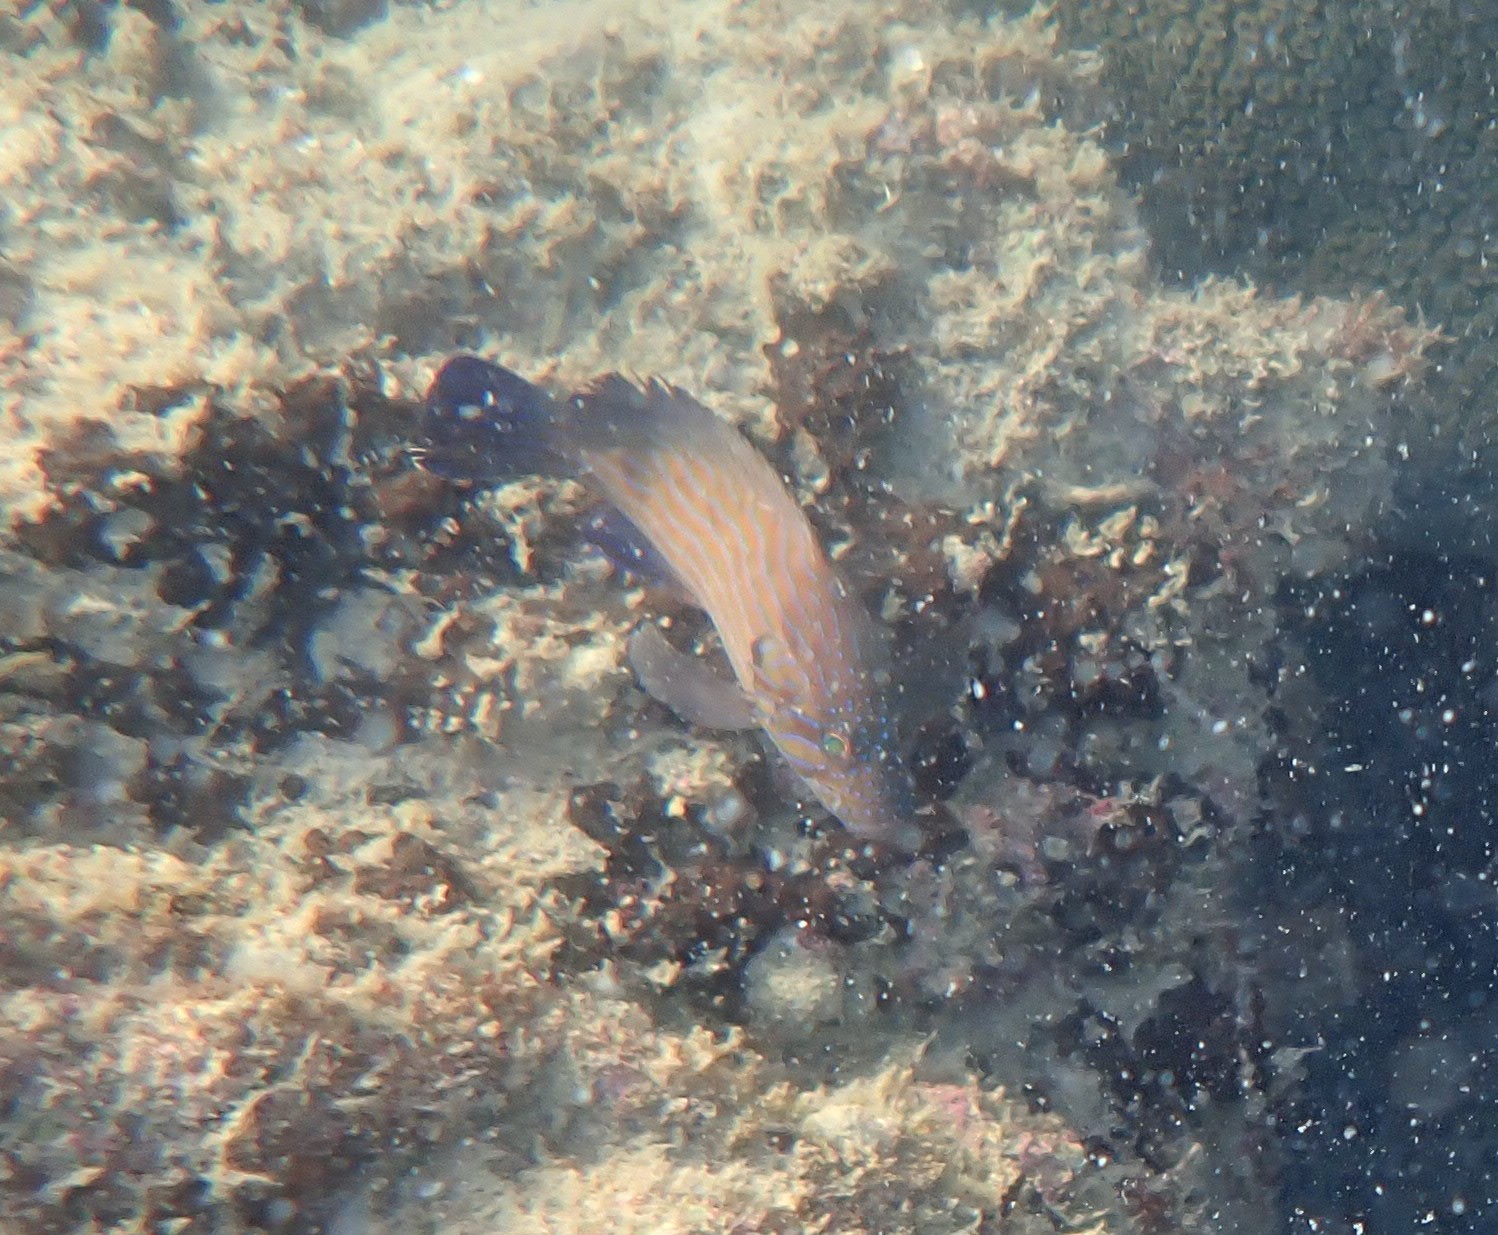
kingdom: Animalia
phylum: Chordata
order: Perciformes
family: Serranidae
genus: Cephalopholis
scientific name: Cephalopholis formosa
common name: Bluelined hind
